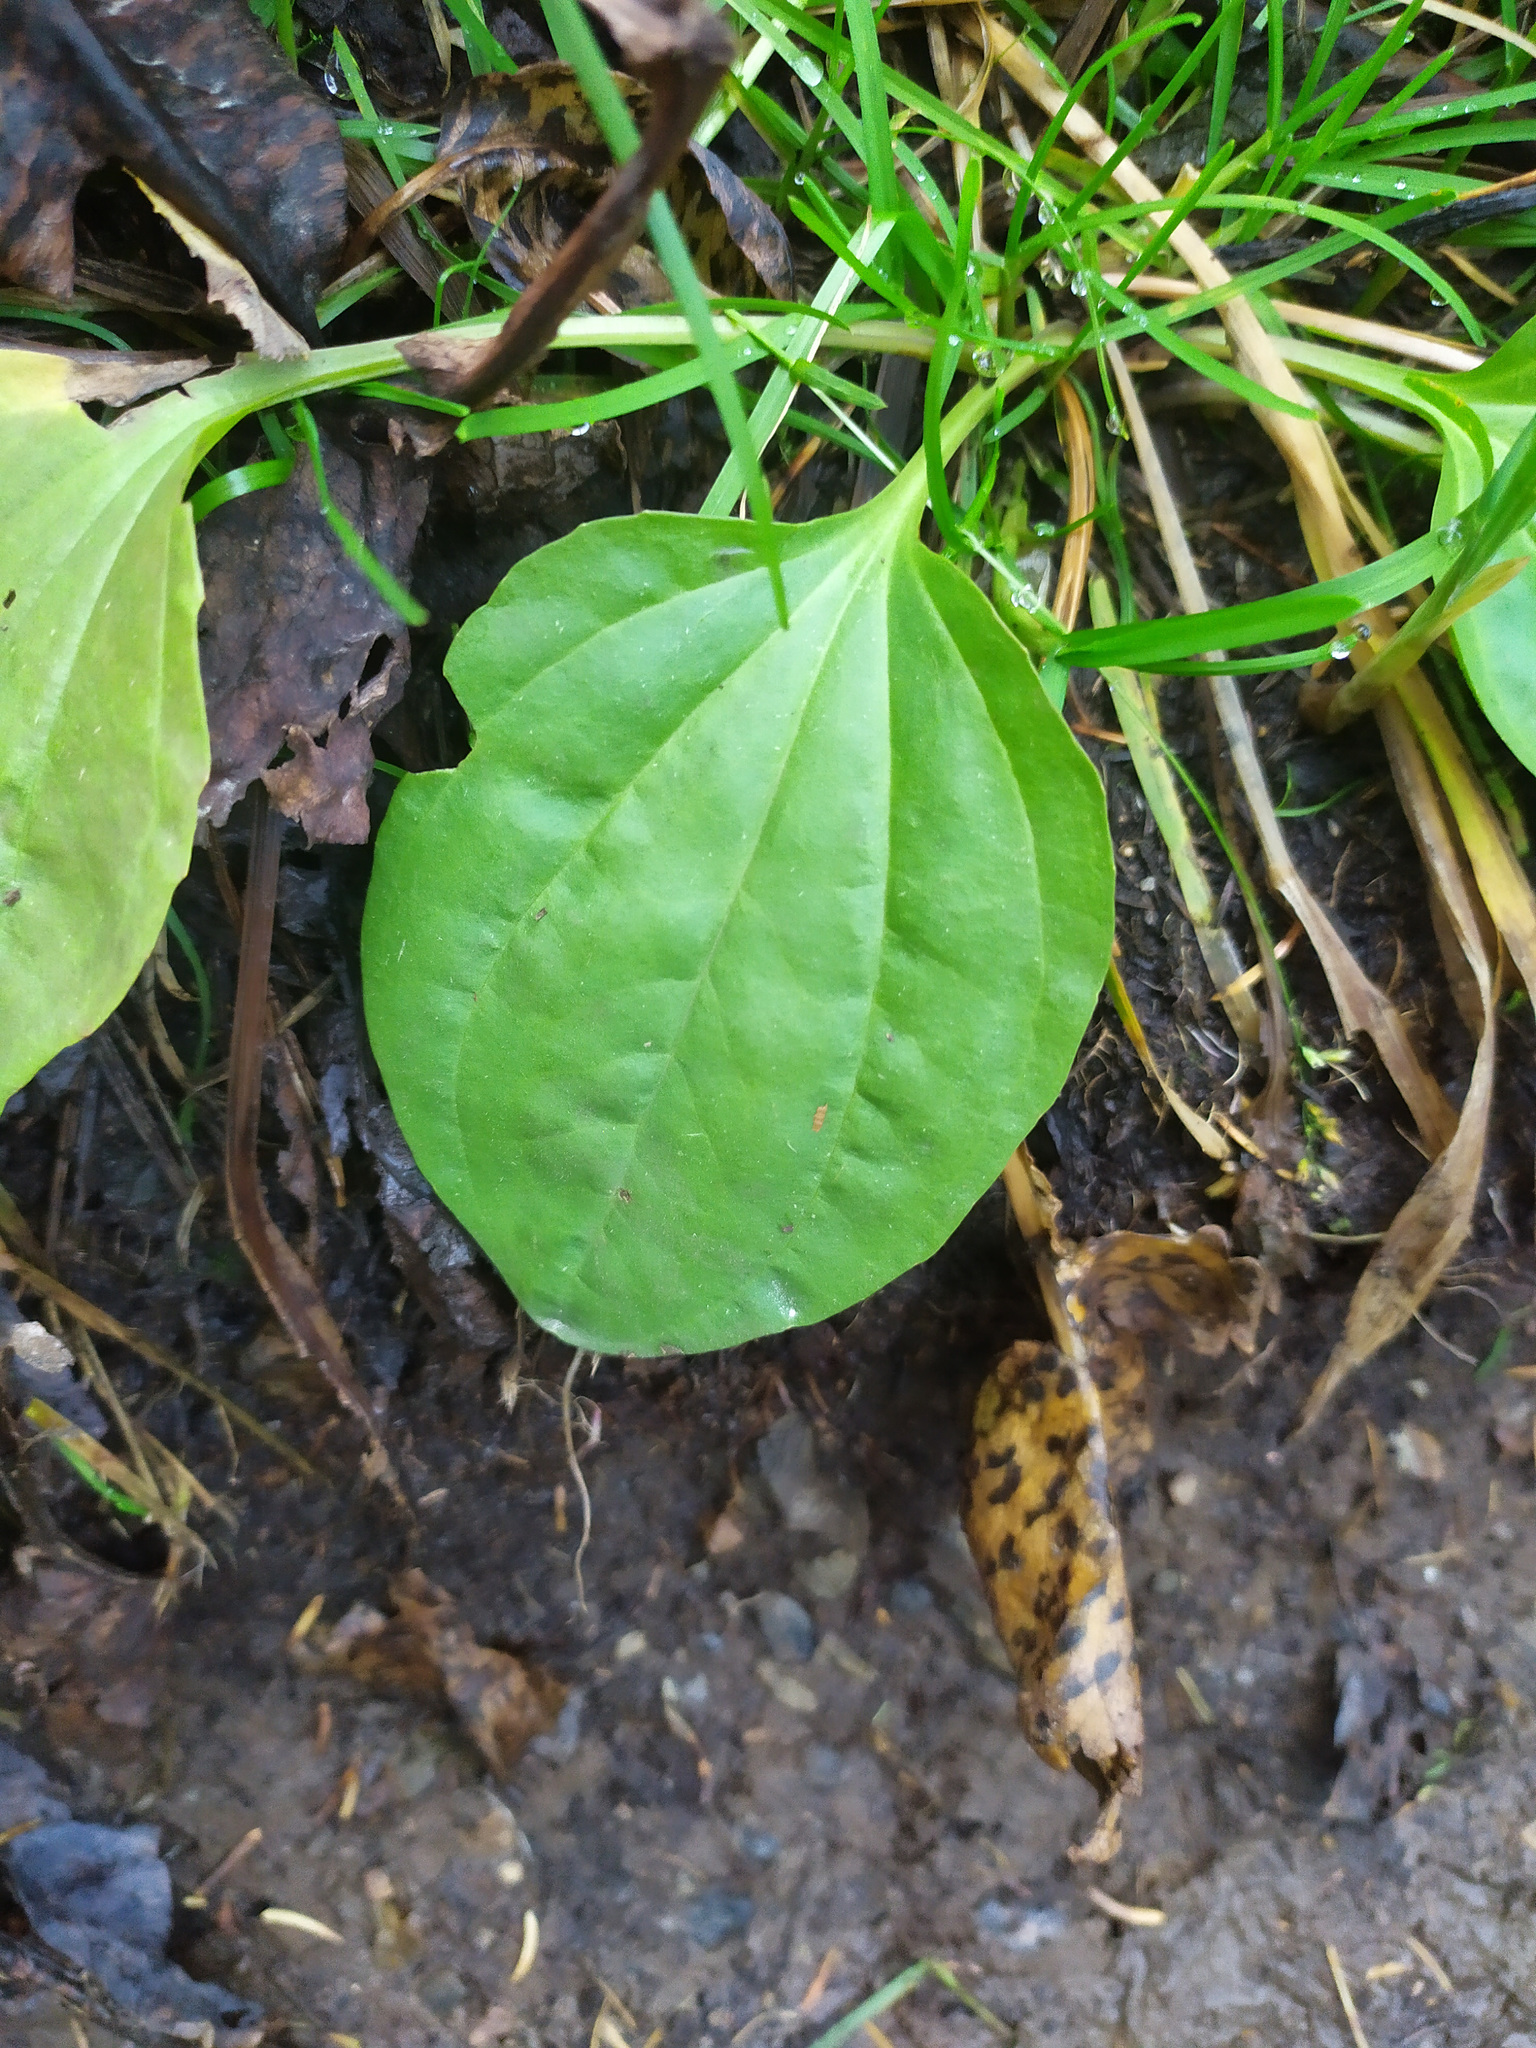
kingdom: Plantae
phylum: Tracheophyta
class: Magnoliopsida
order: Lamiales
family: Plantaginaceae
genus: Plantago
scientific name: Plantago major
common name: Common plantain
